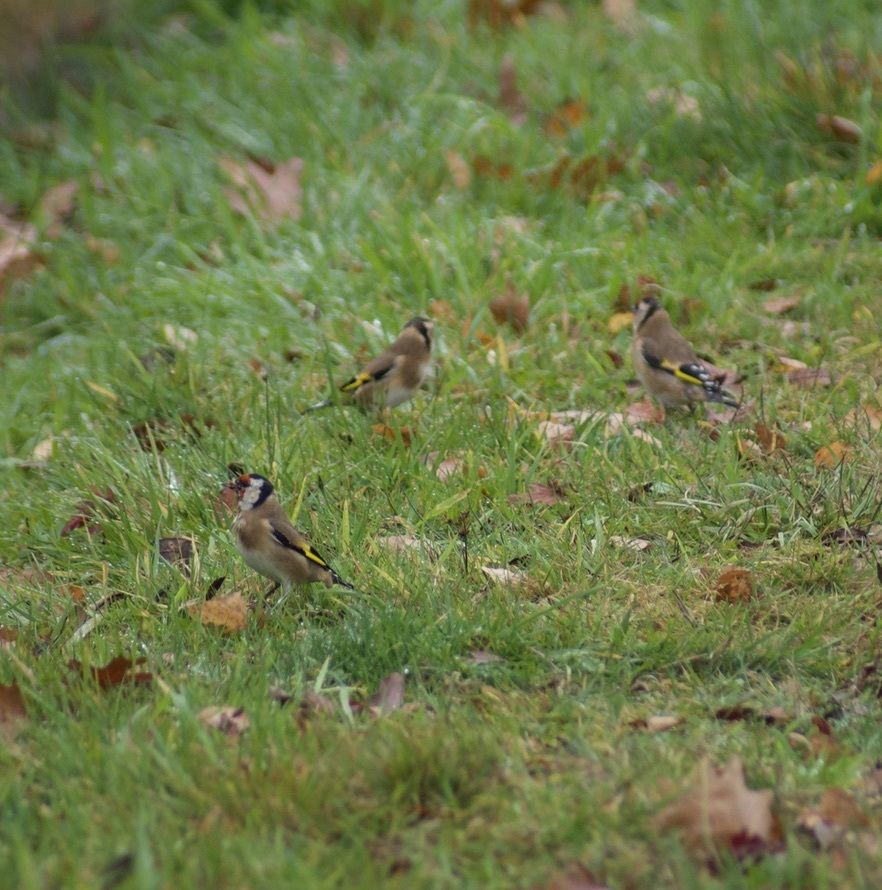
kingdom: Animalia
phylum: Chordata
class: Aves
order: Passeriformes
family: Fringillidae
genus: Carduelis
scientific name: Carduelis carduelis
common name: European goldfinch
